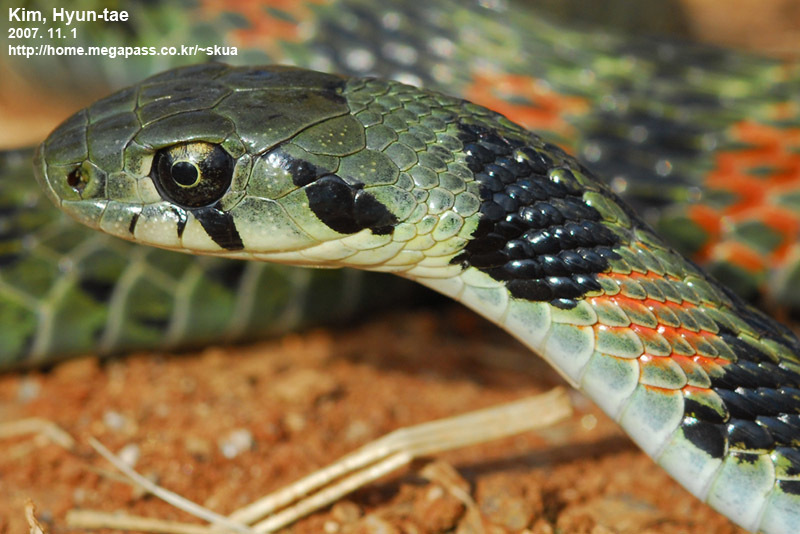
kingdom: Animalia
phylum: Chordata
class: Squamata
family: Colubridae
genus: Rhabdophis
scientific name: Rhabdophis tigrinus
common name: Tiger keelback
